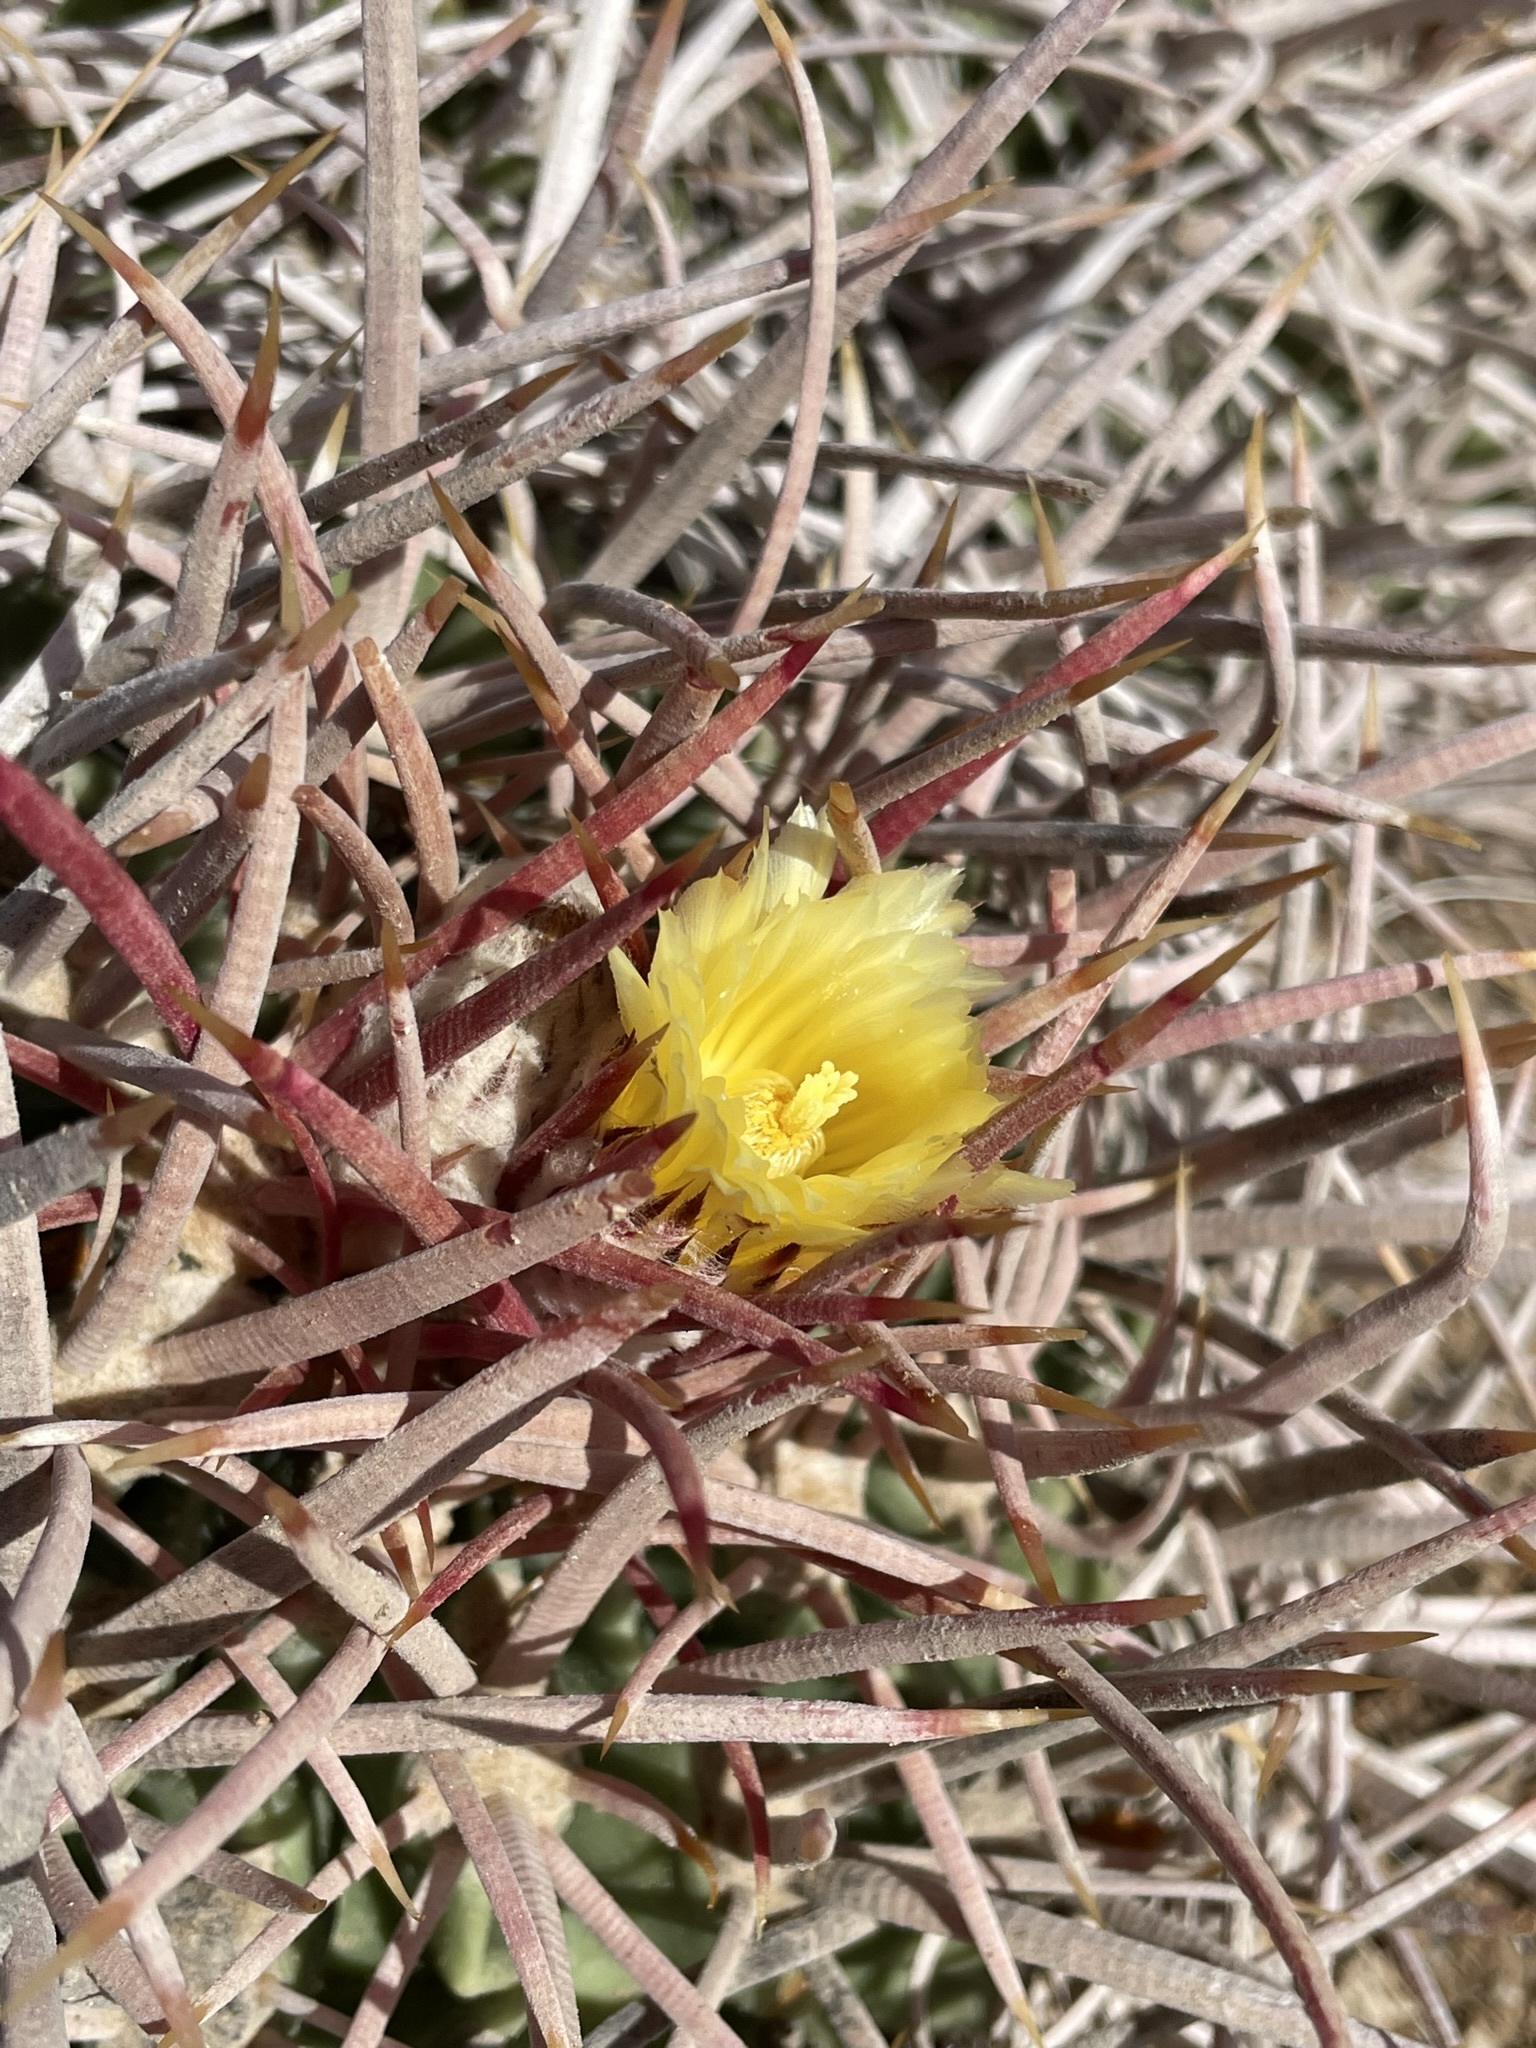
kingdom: Plantae
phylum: Tracheophyta
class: Magnoliopsida
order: Caryophyllales
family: Cactaceae
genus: Echinocactus
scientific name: Echinocactus polycephalus
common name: Cottontop cactus
